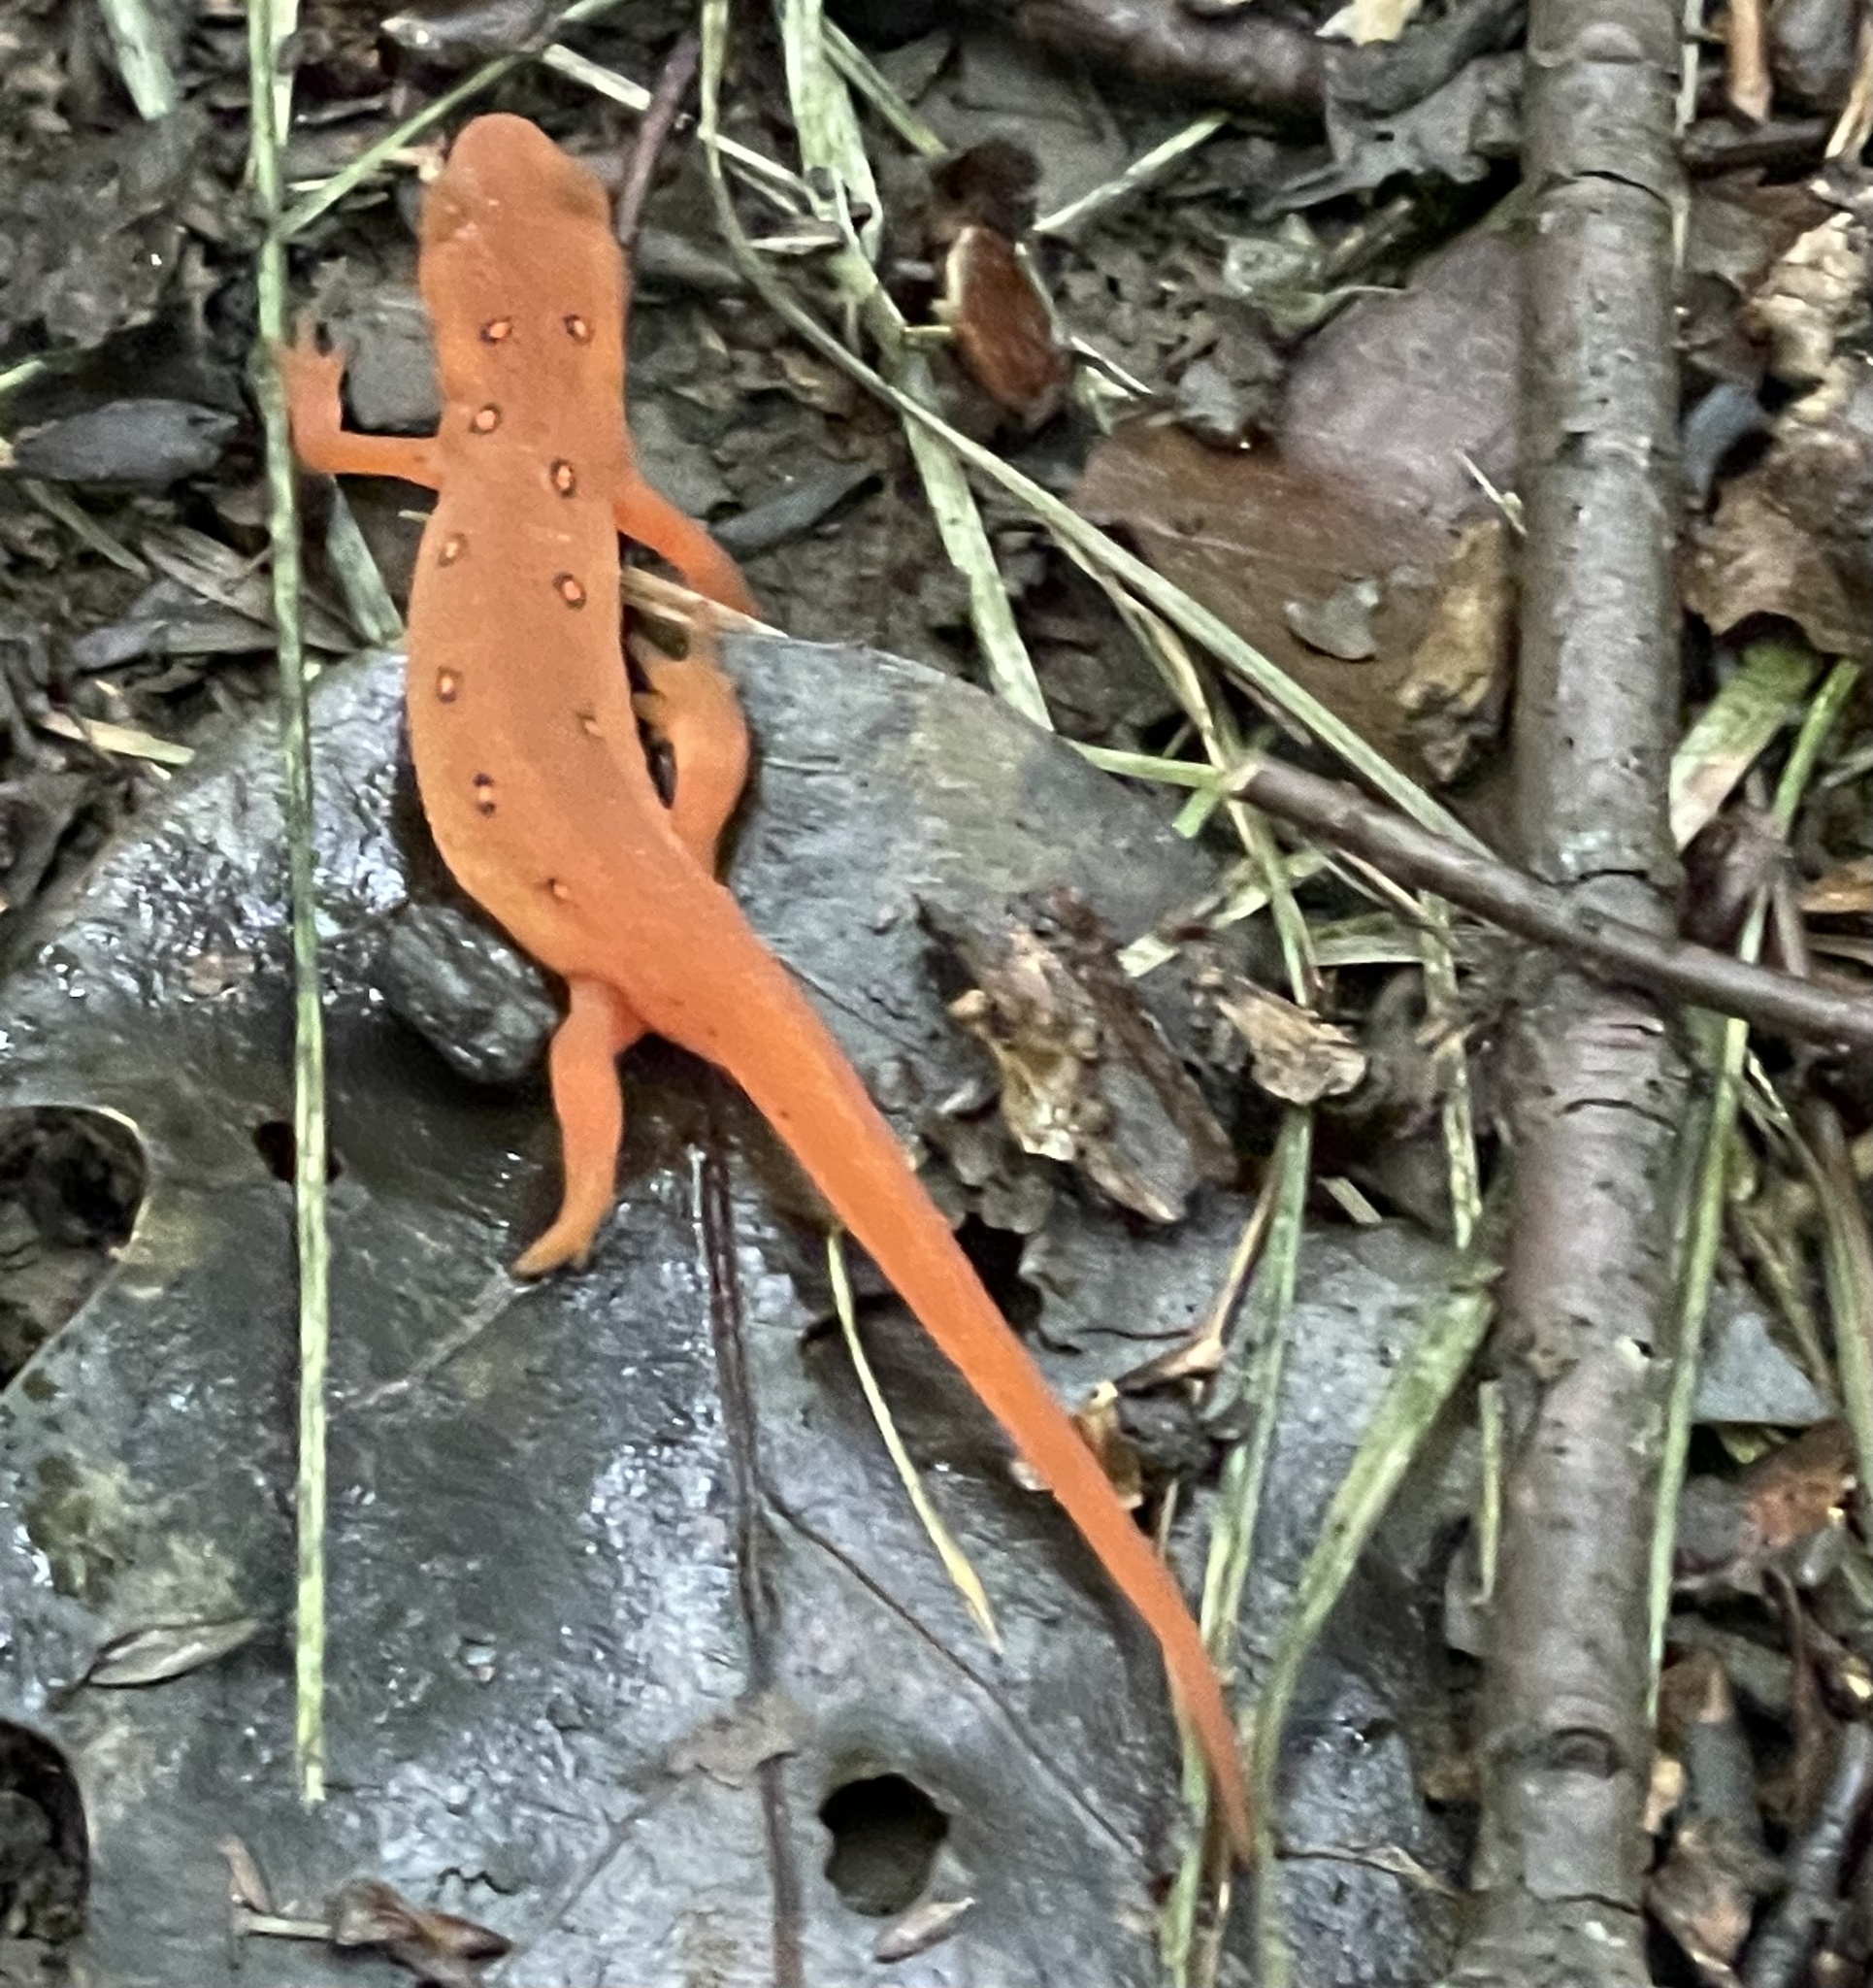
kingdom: Animalia
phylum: Chordata
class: Amphibia
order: Caudata
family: Salamandridae
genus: Notophthalmus
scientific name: Notophthalmus viridescens
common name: Eastern newt
